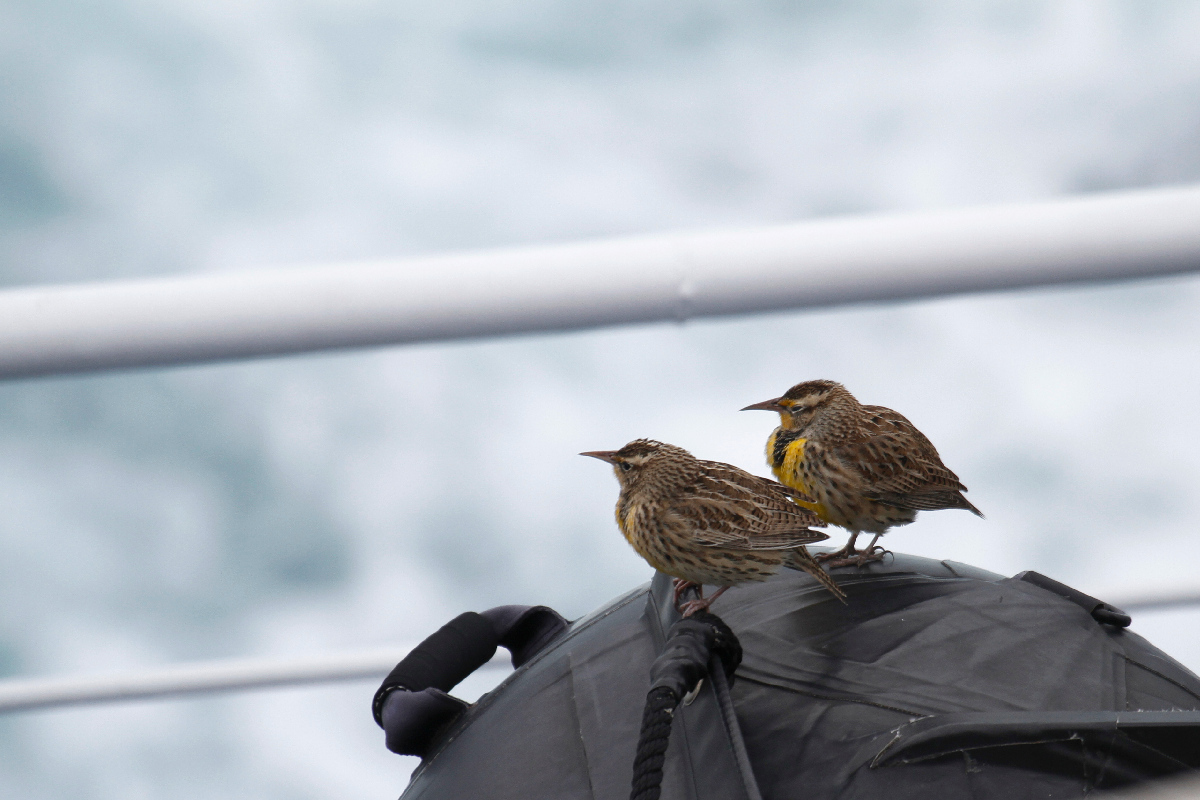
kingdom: Animalia
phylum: Chordata
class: Aves
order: Passeriformes
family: Icteridae
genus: Sturnella
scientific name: Sturnella neglecta
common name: Western meadowlark
